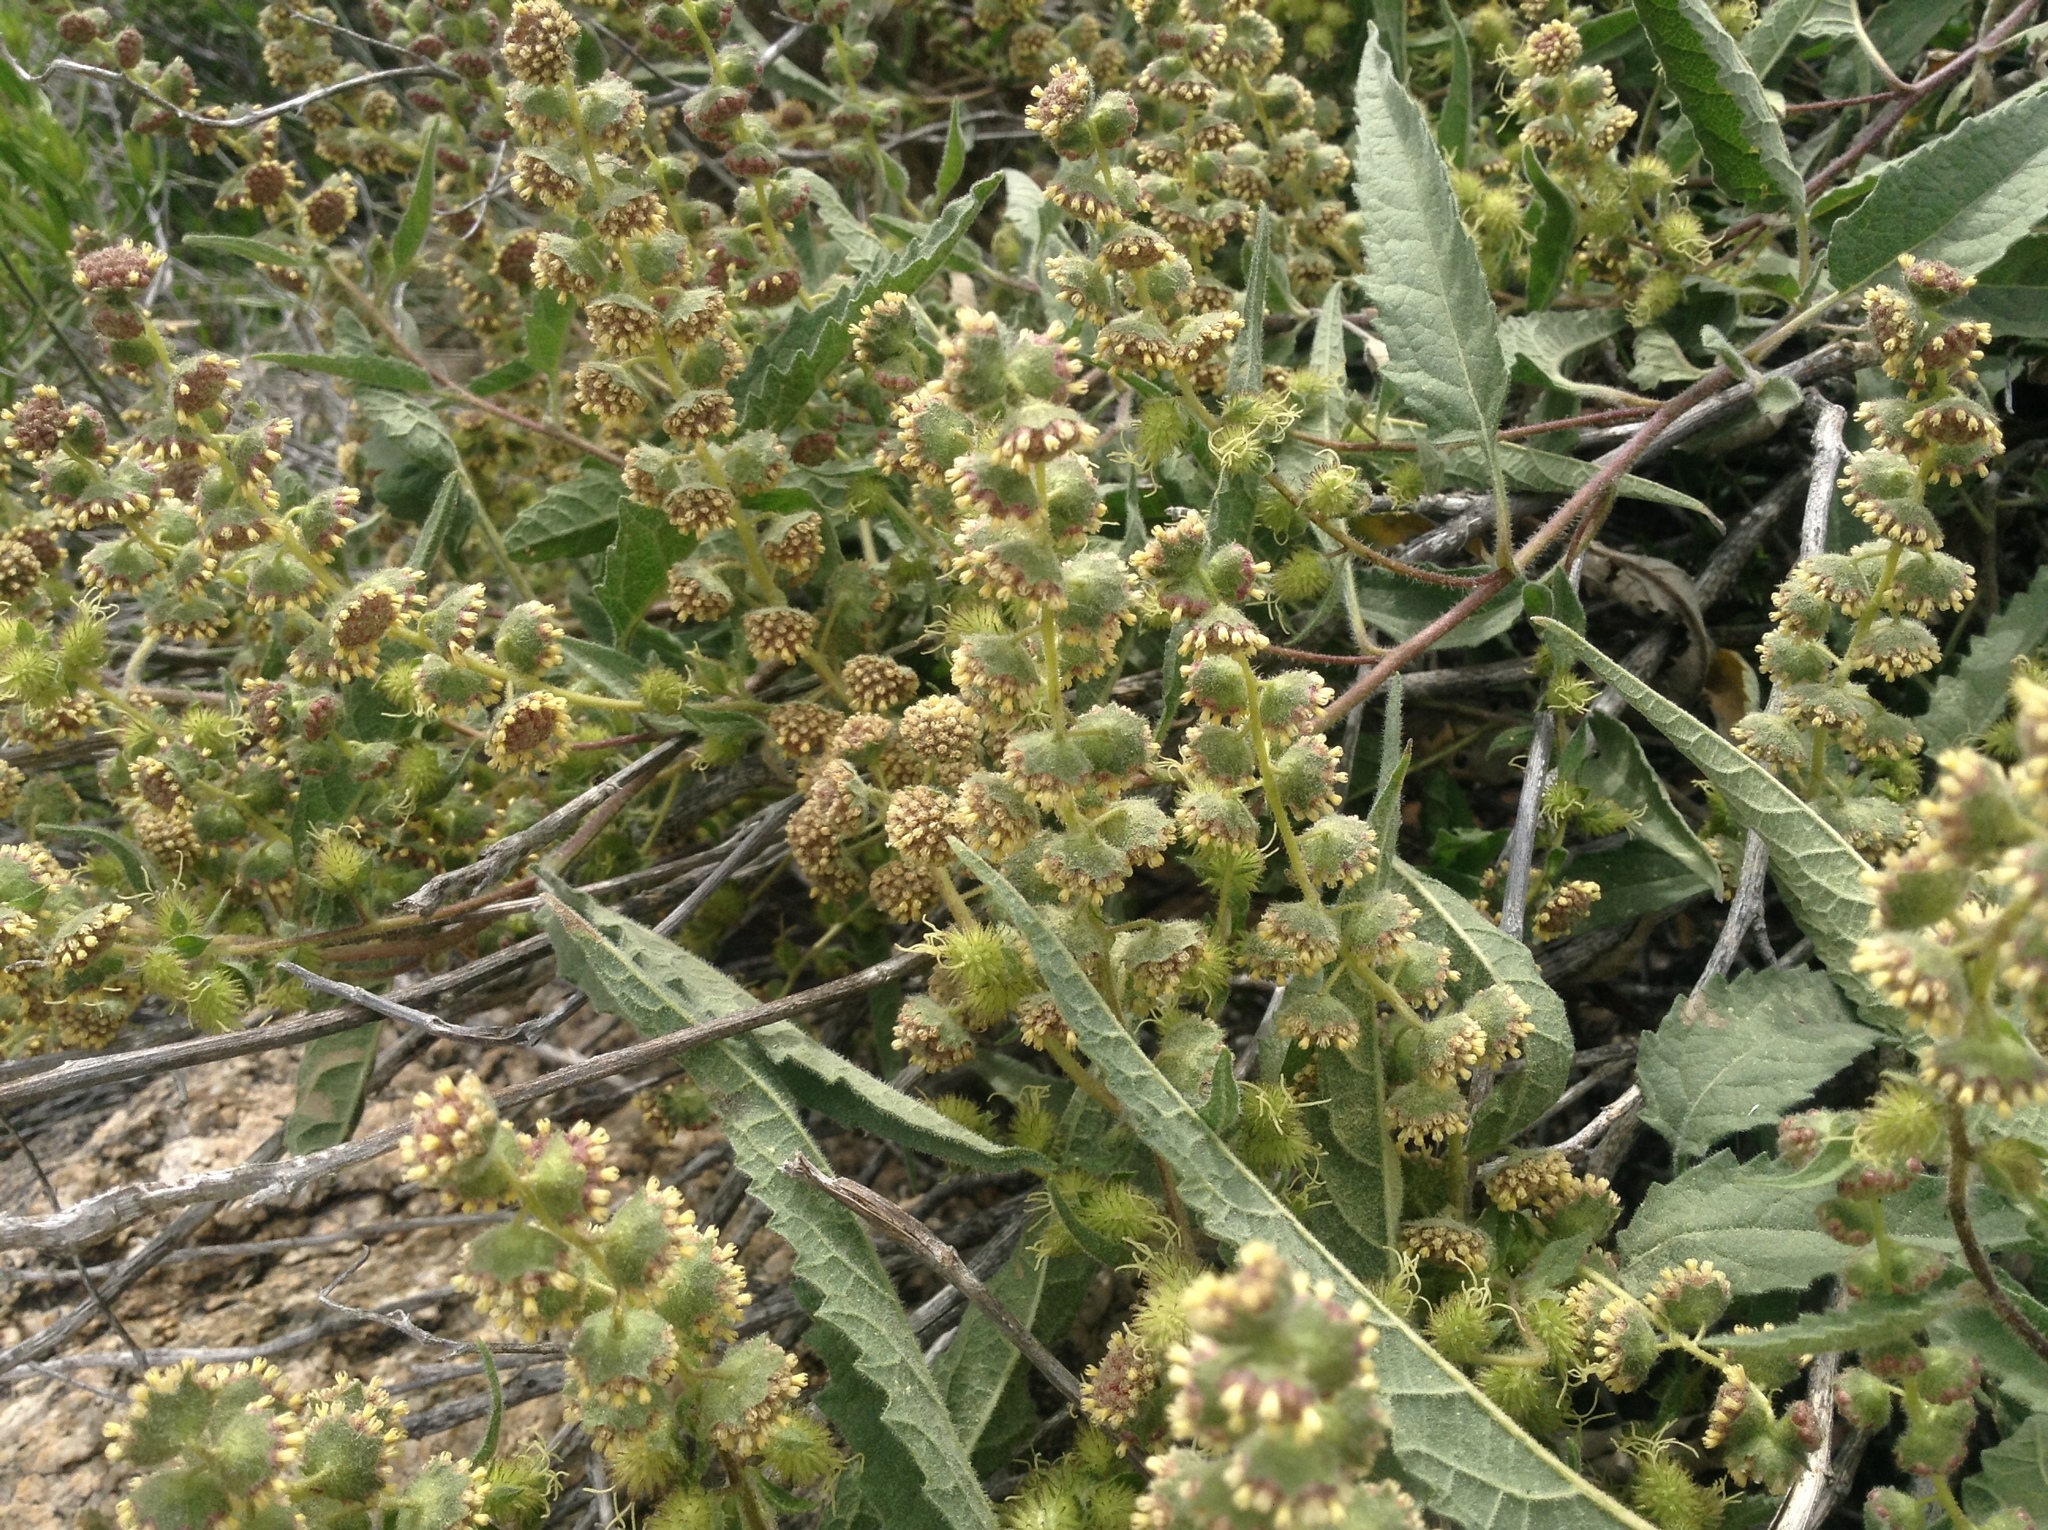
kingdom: Plantae
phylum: Tracheophyta
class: Magnoliopsida
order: Asterales
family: Asteraceae
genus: Ambrosia
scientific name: Ambrosia ambrosioides
